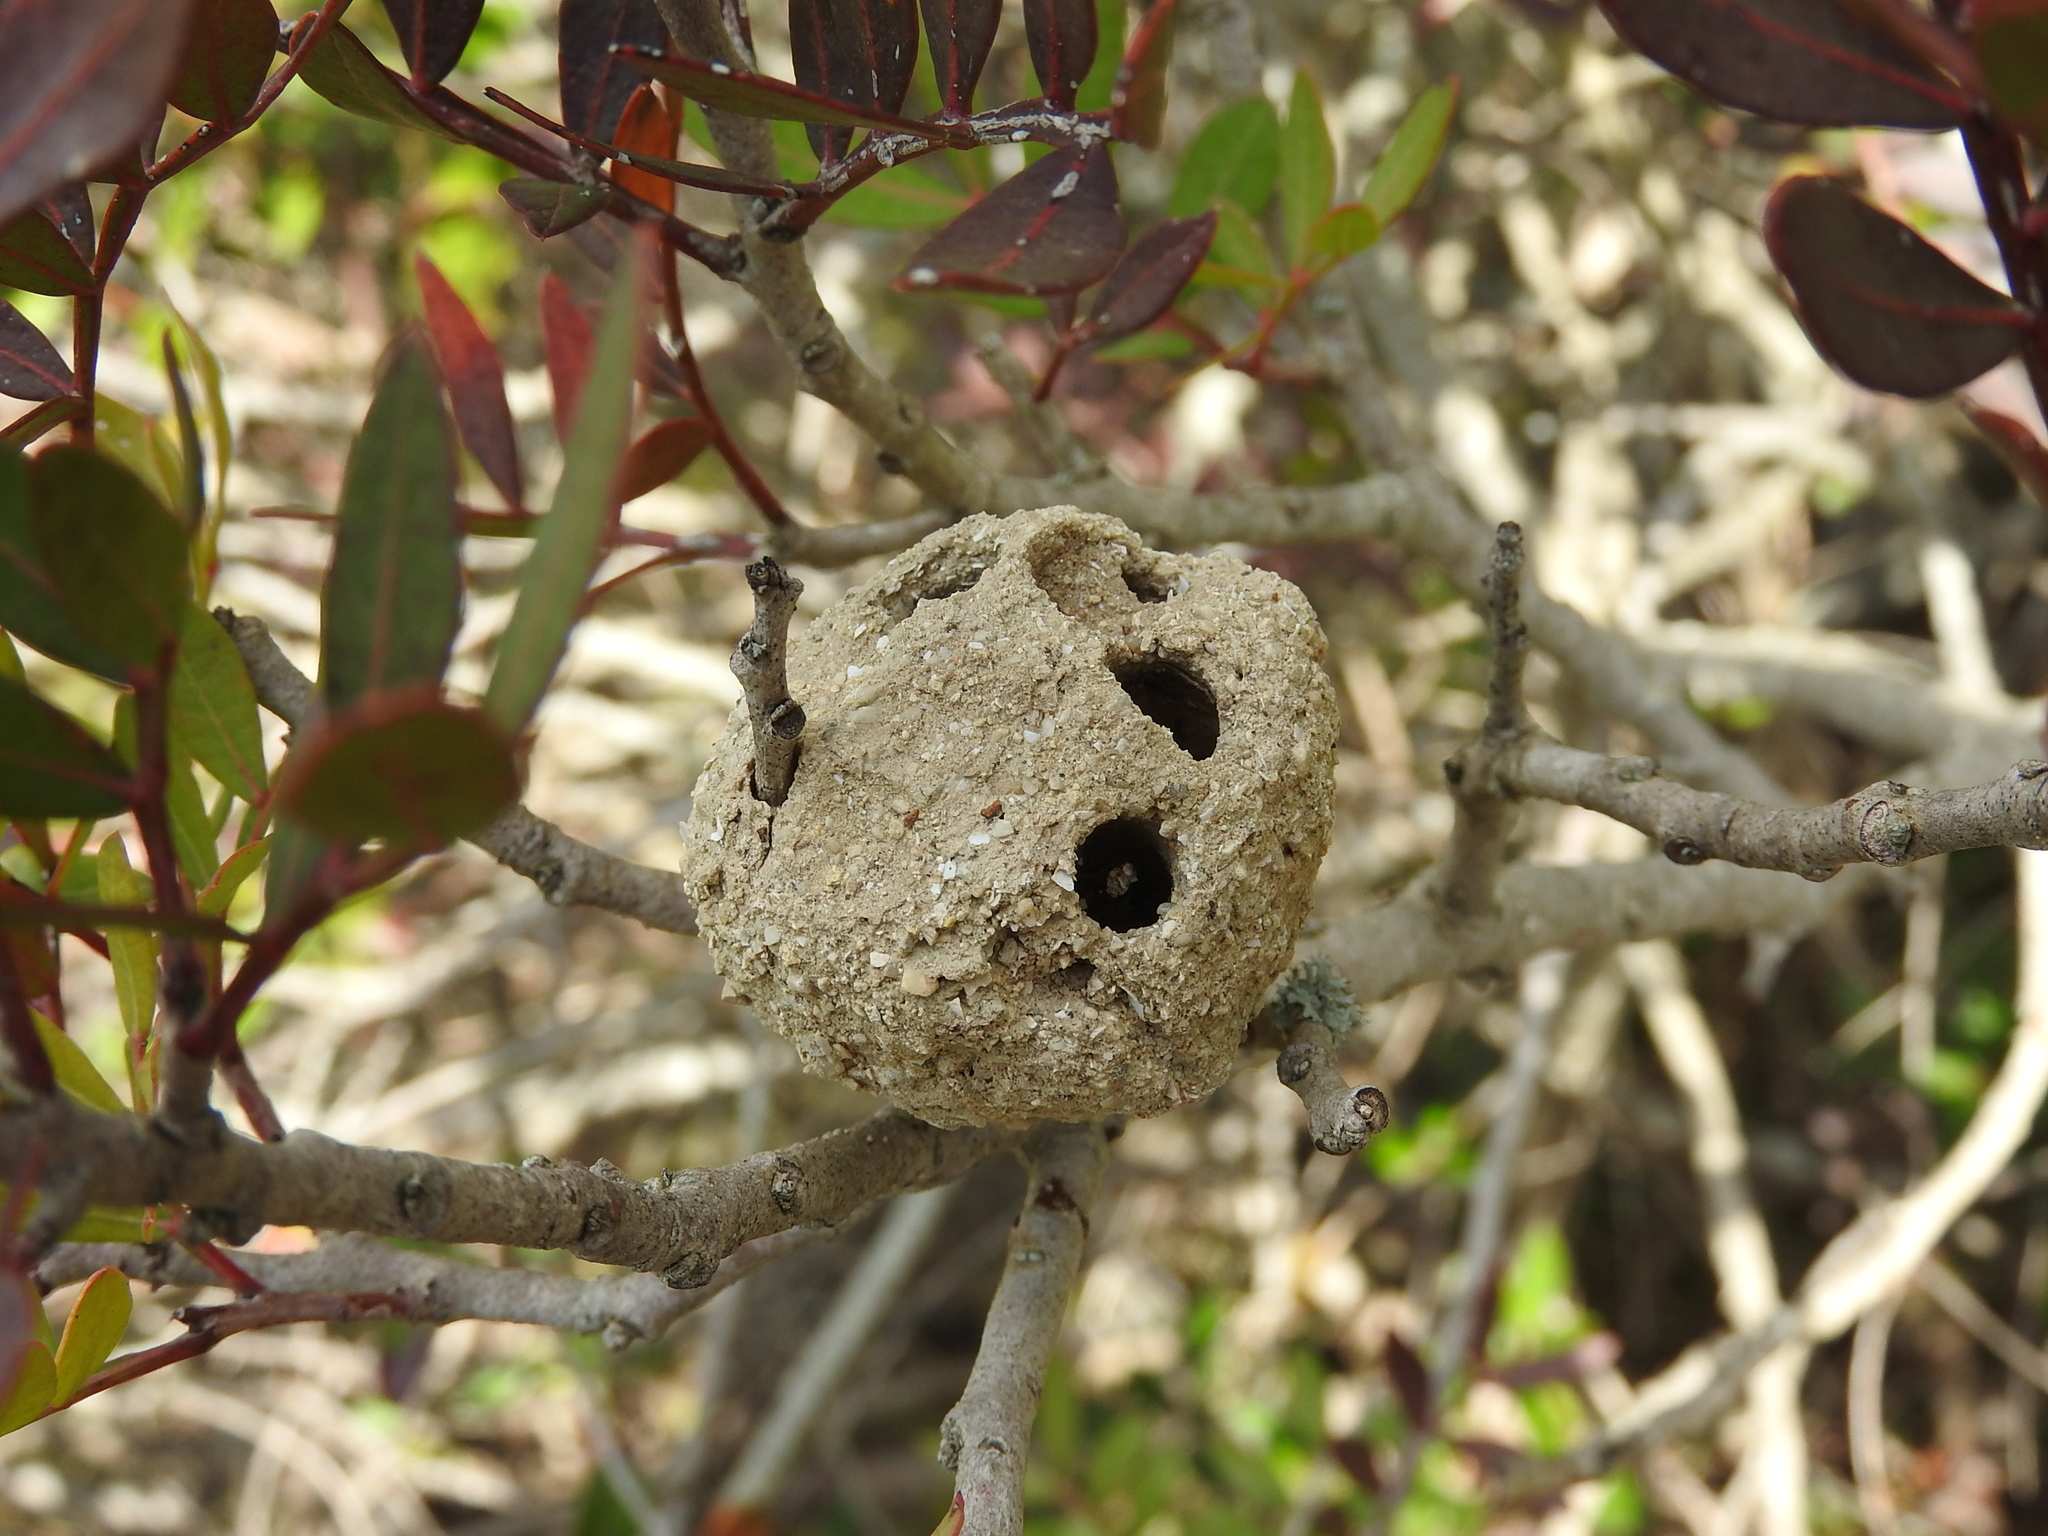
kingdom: Animalia
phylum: Arthropoda
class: Insecta
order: Hymenoptera
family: Megachilidae
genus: Megachile
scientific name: Megachile sicula
